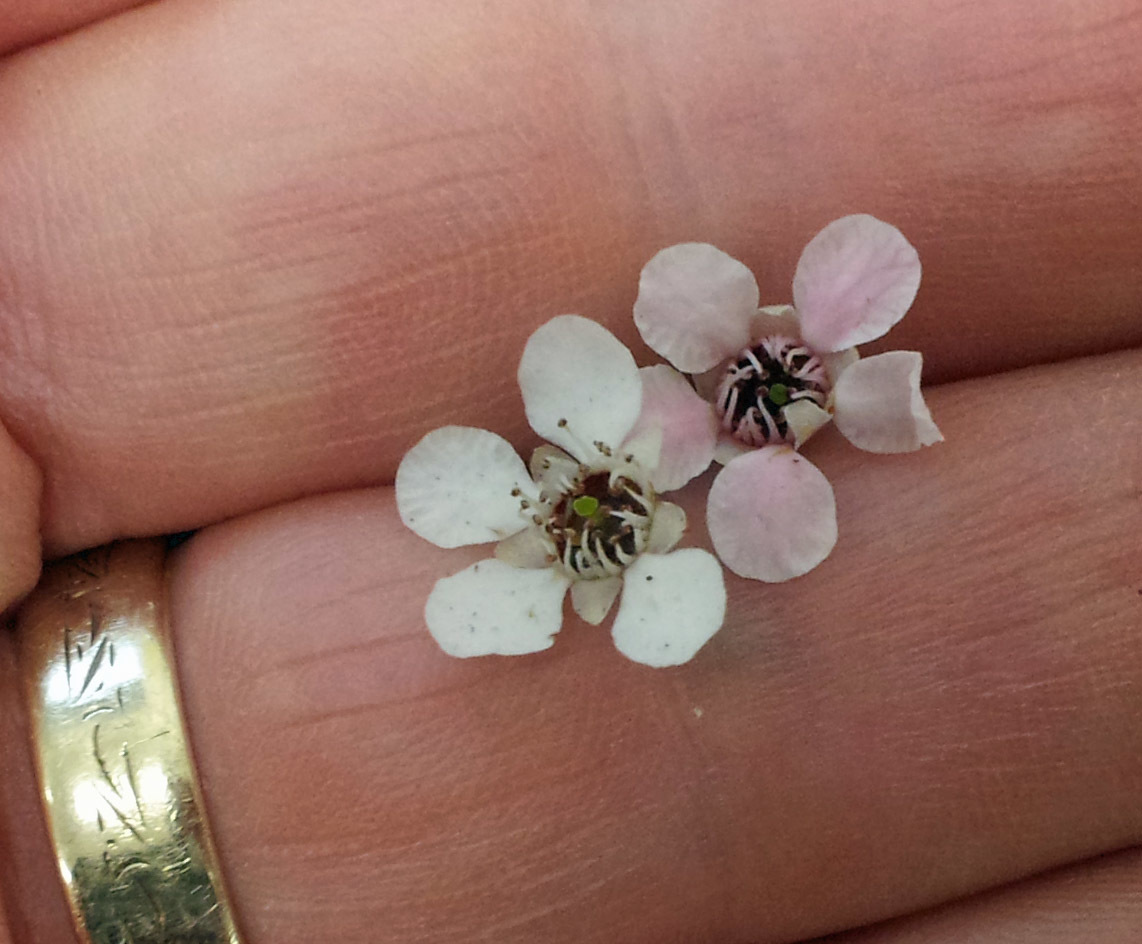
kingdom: Plantae
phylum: Tracheophyta
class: Magnoliopsida
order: Myrtales
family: Myrtaceae
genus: Leptospermum
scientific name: Leptospermum scoparium
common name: Broom tea-tree
